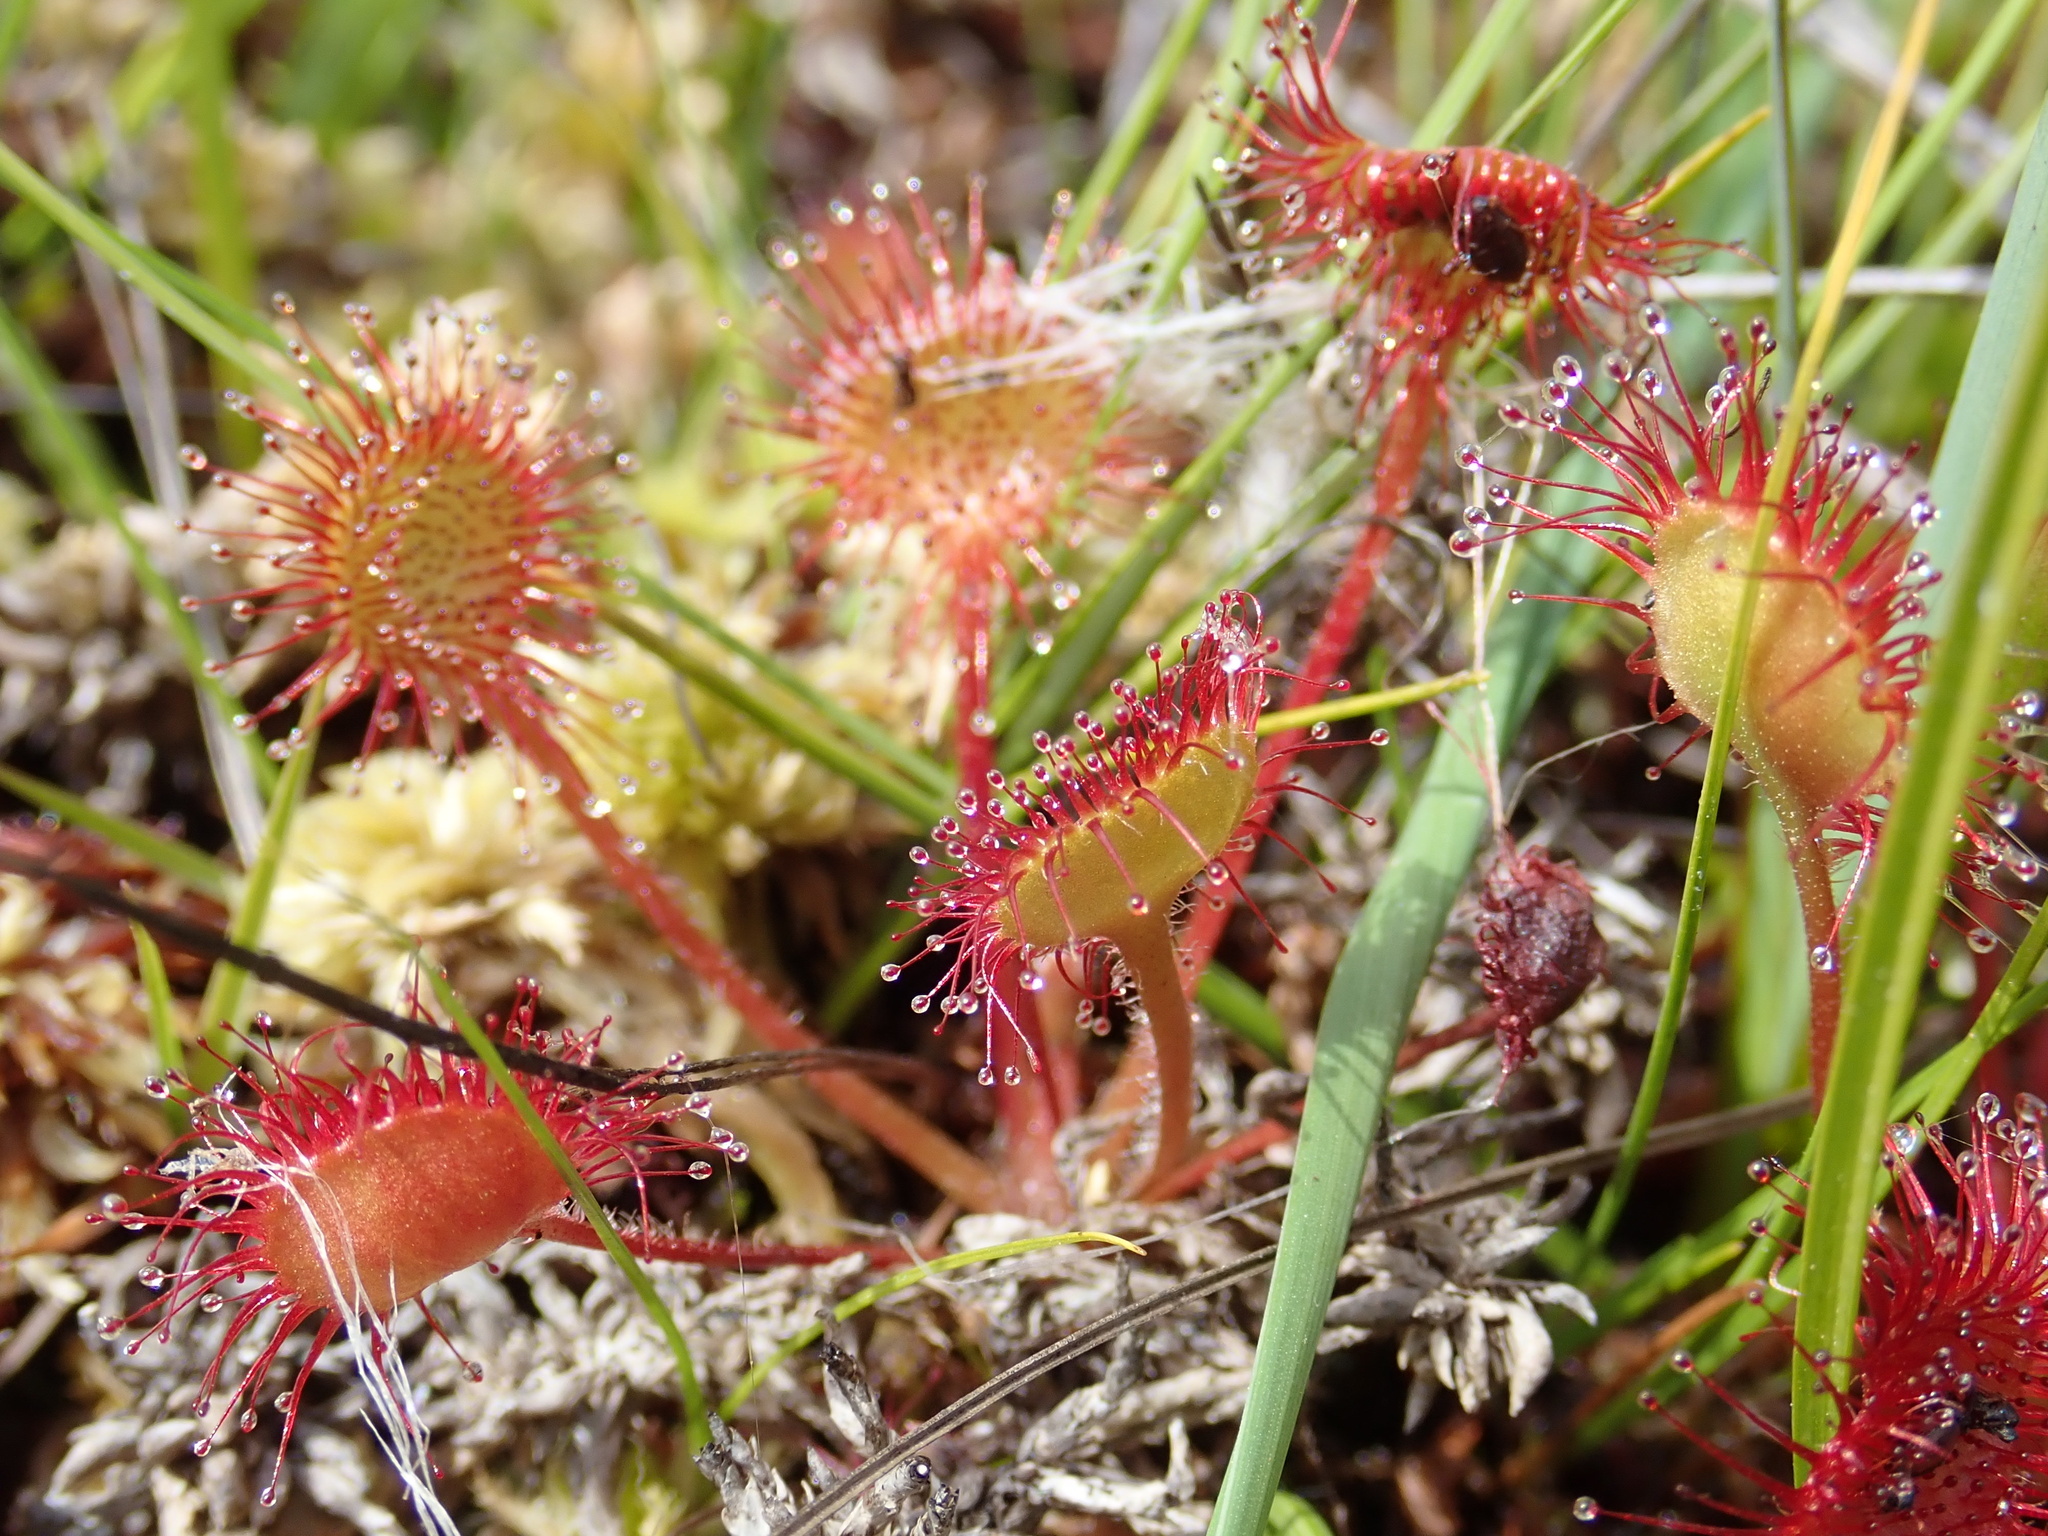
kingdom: Plantae
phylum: Tracheophyta
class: Magnoliopsida
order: Caryophyllales
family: Droseraceae
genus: Drosera
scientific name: Drosera rotundifolia
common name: Round-leaved sundew
